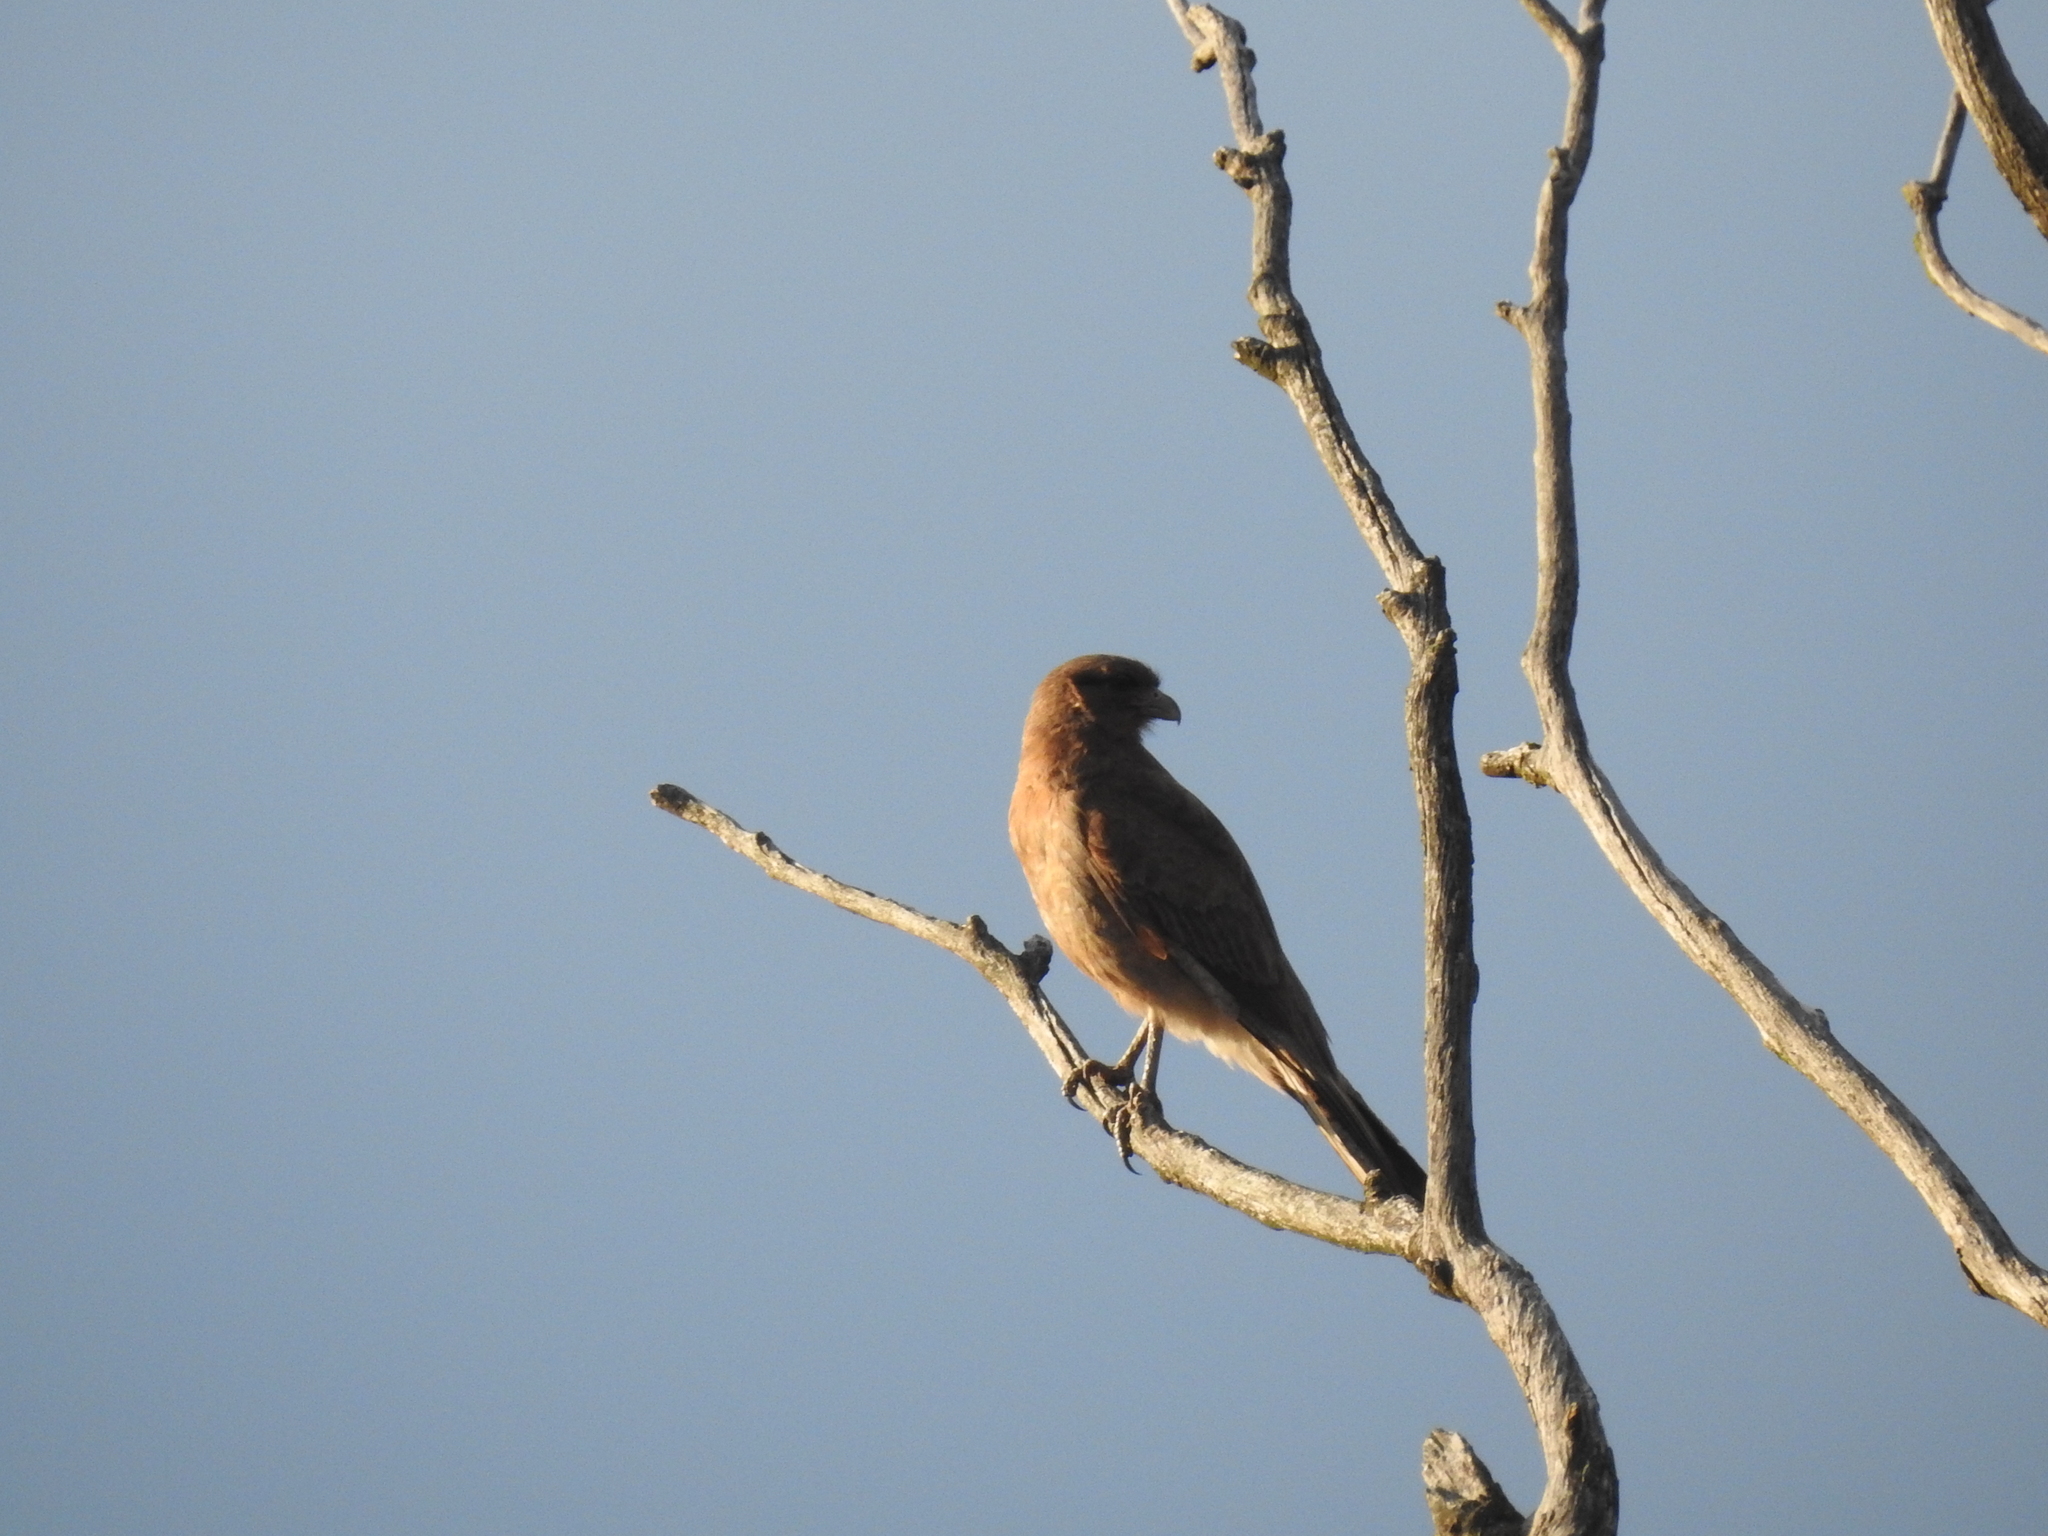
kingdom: Animalia
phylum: Chordata
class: Aves
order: Falconiformes
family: Falconidae
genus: Daptrius
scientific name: Daptrius
